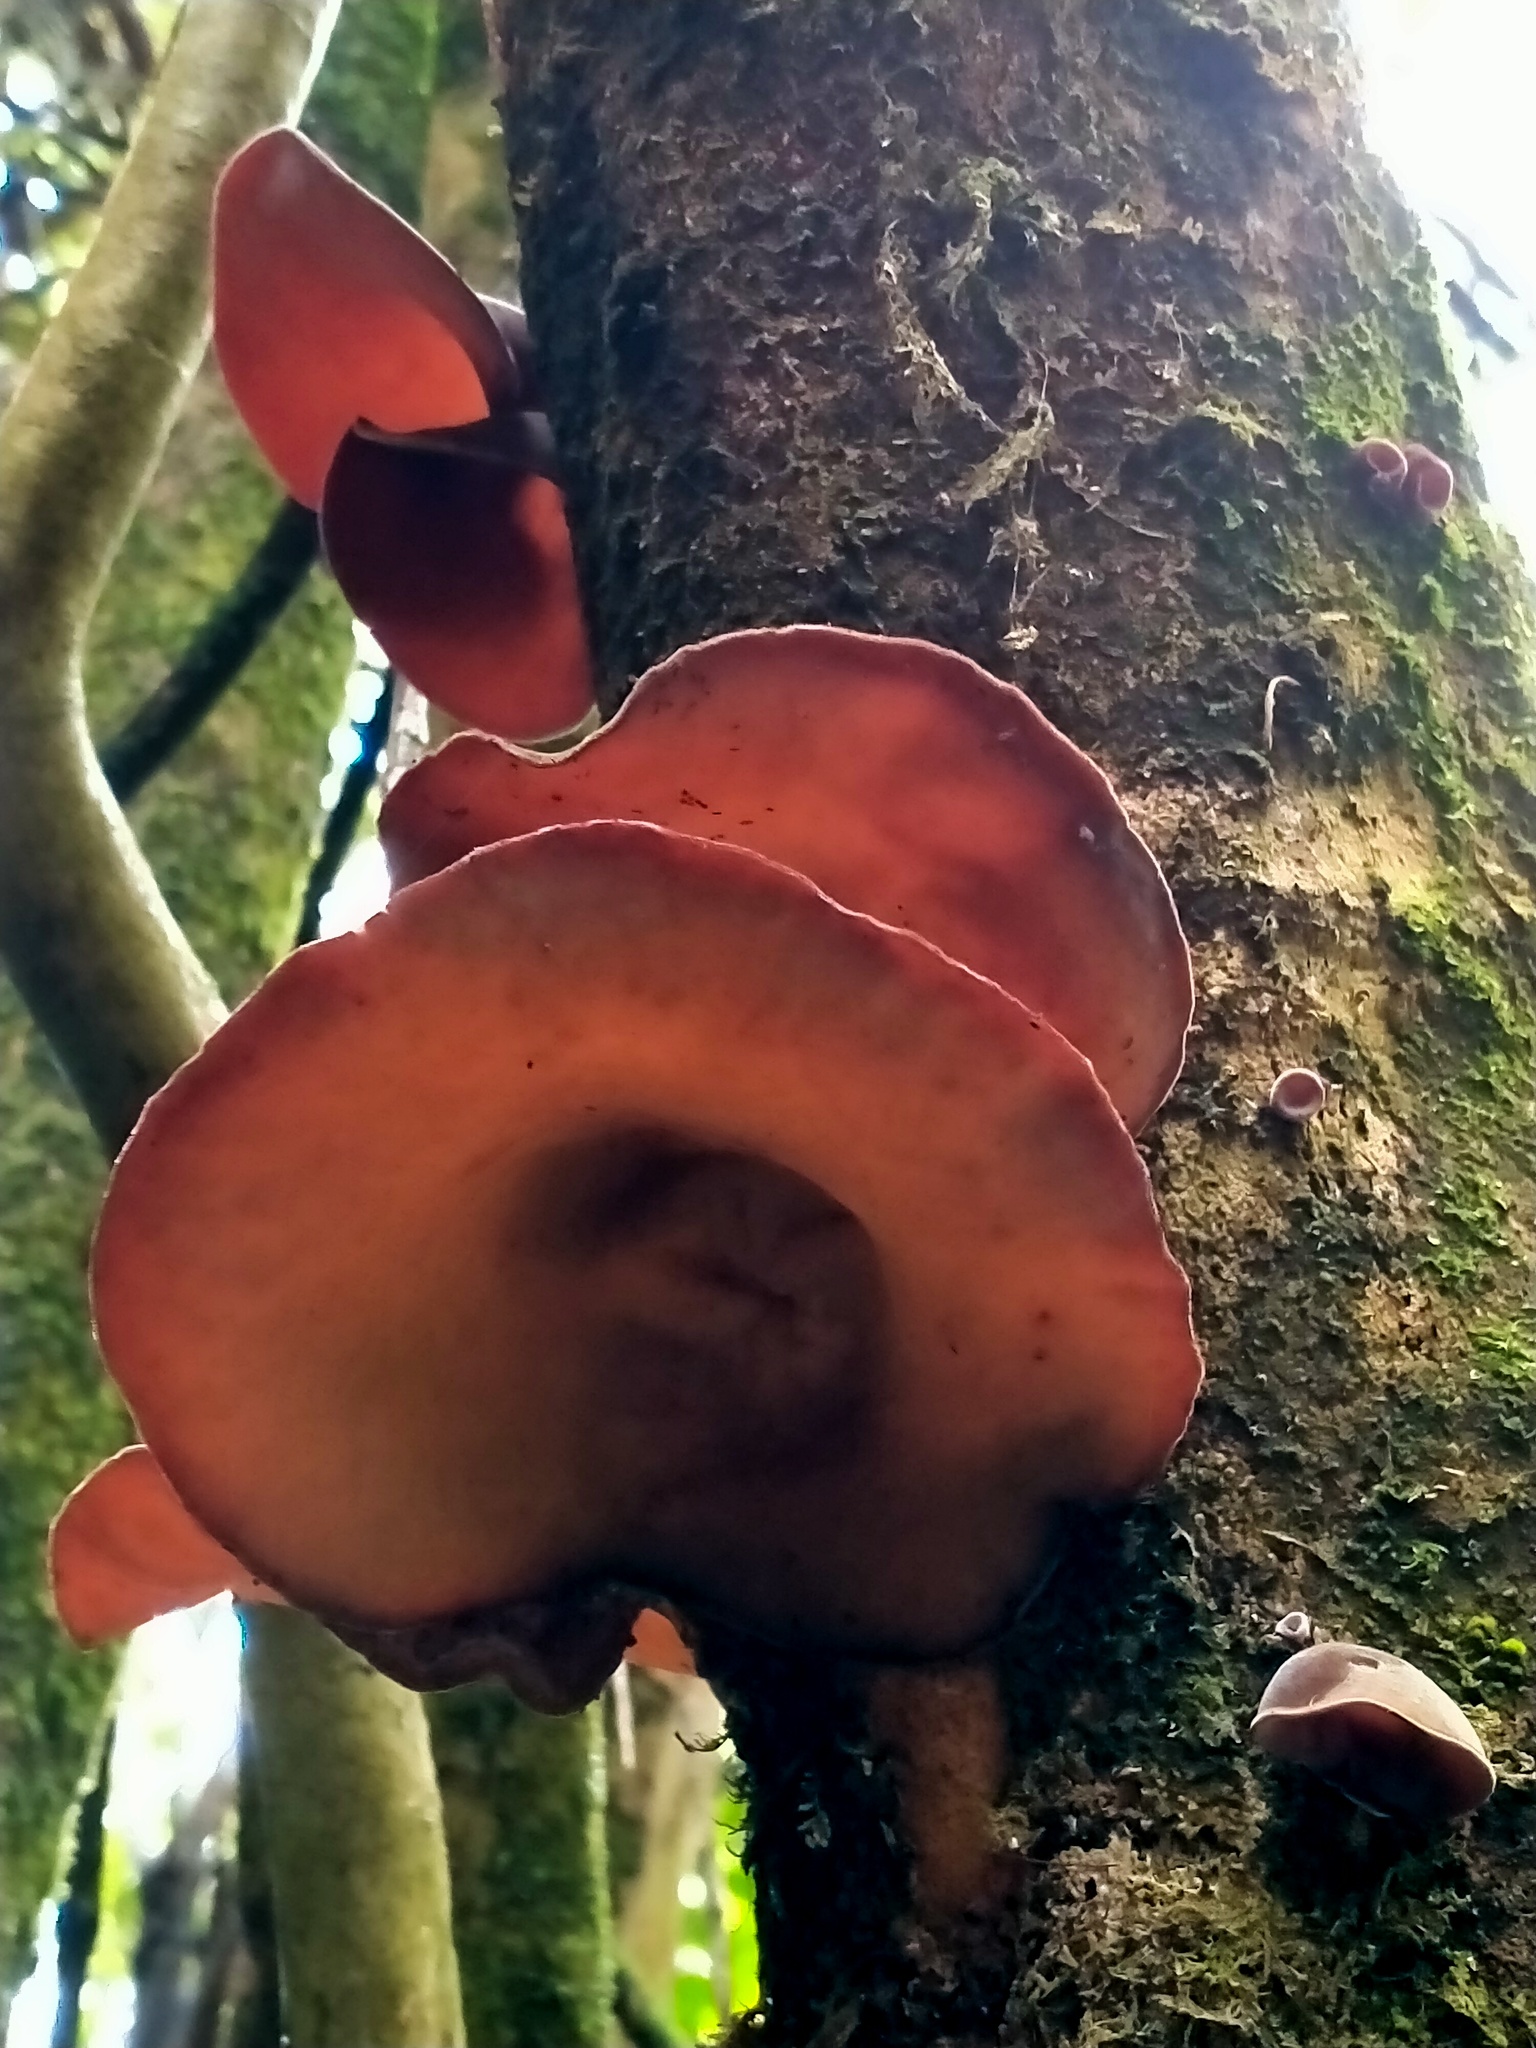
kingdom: Fungi
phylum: Basidiomycota
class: Agaricomycetes
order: Auriculariales
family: Auriculariaceae
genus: Auricularia
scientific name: Auricularia cornea
